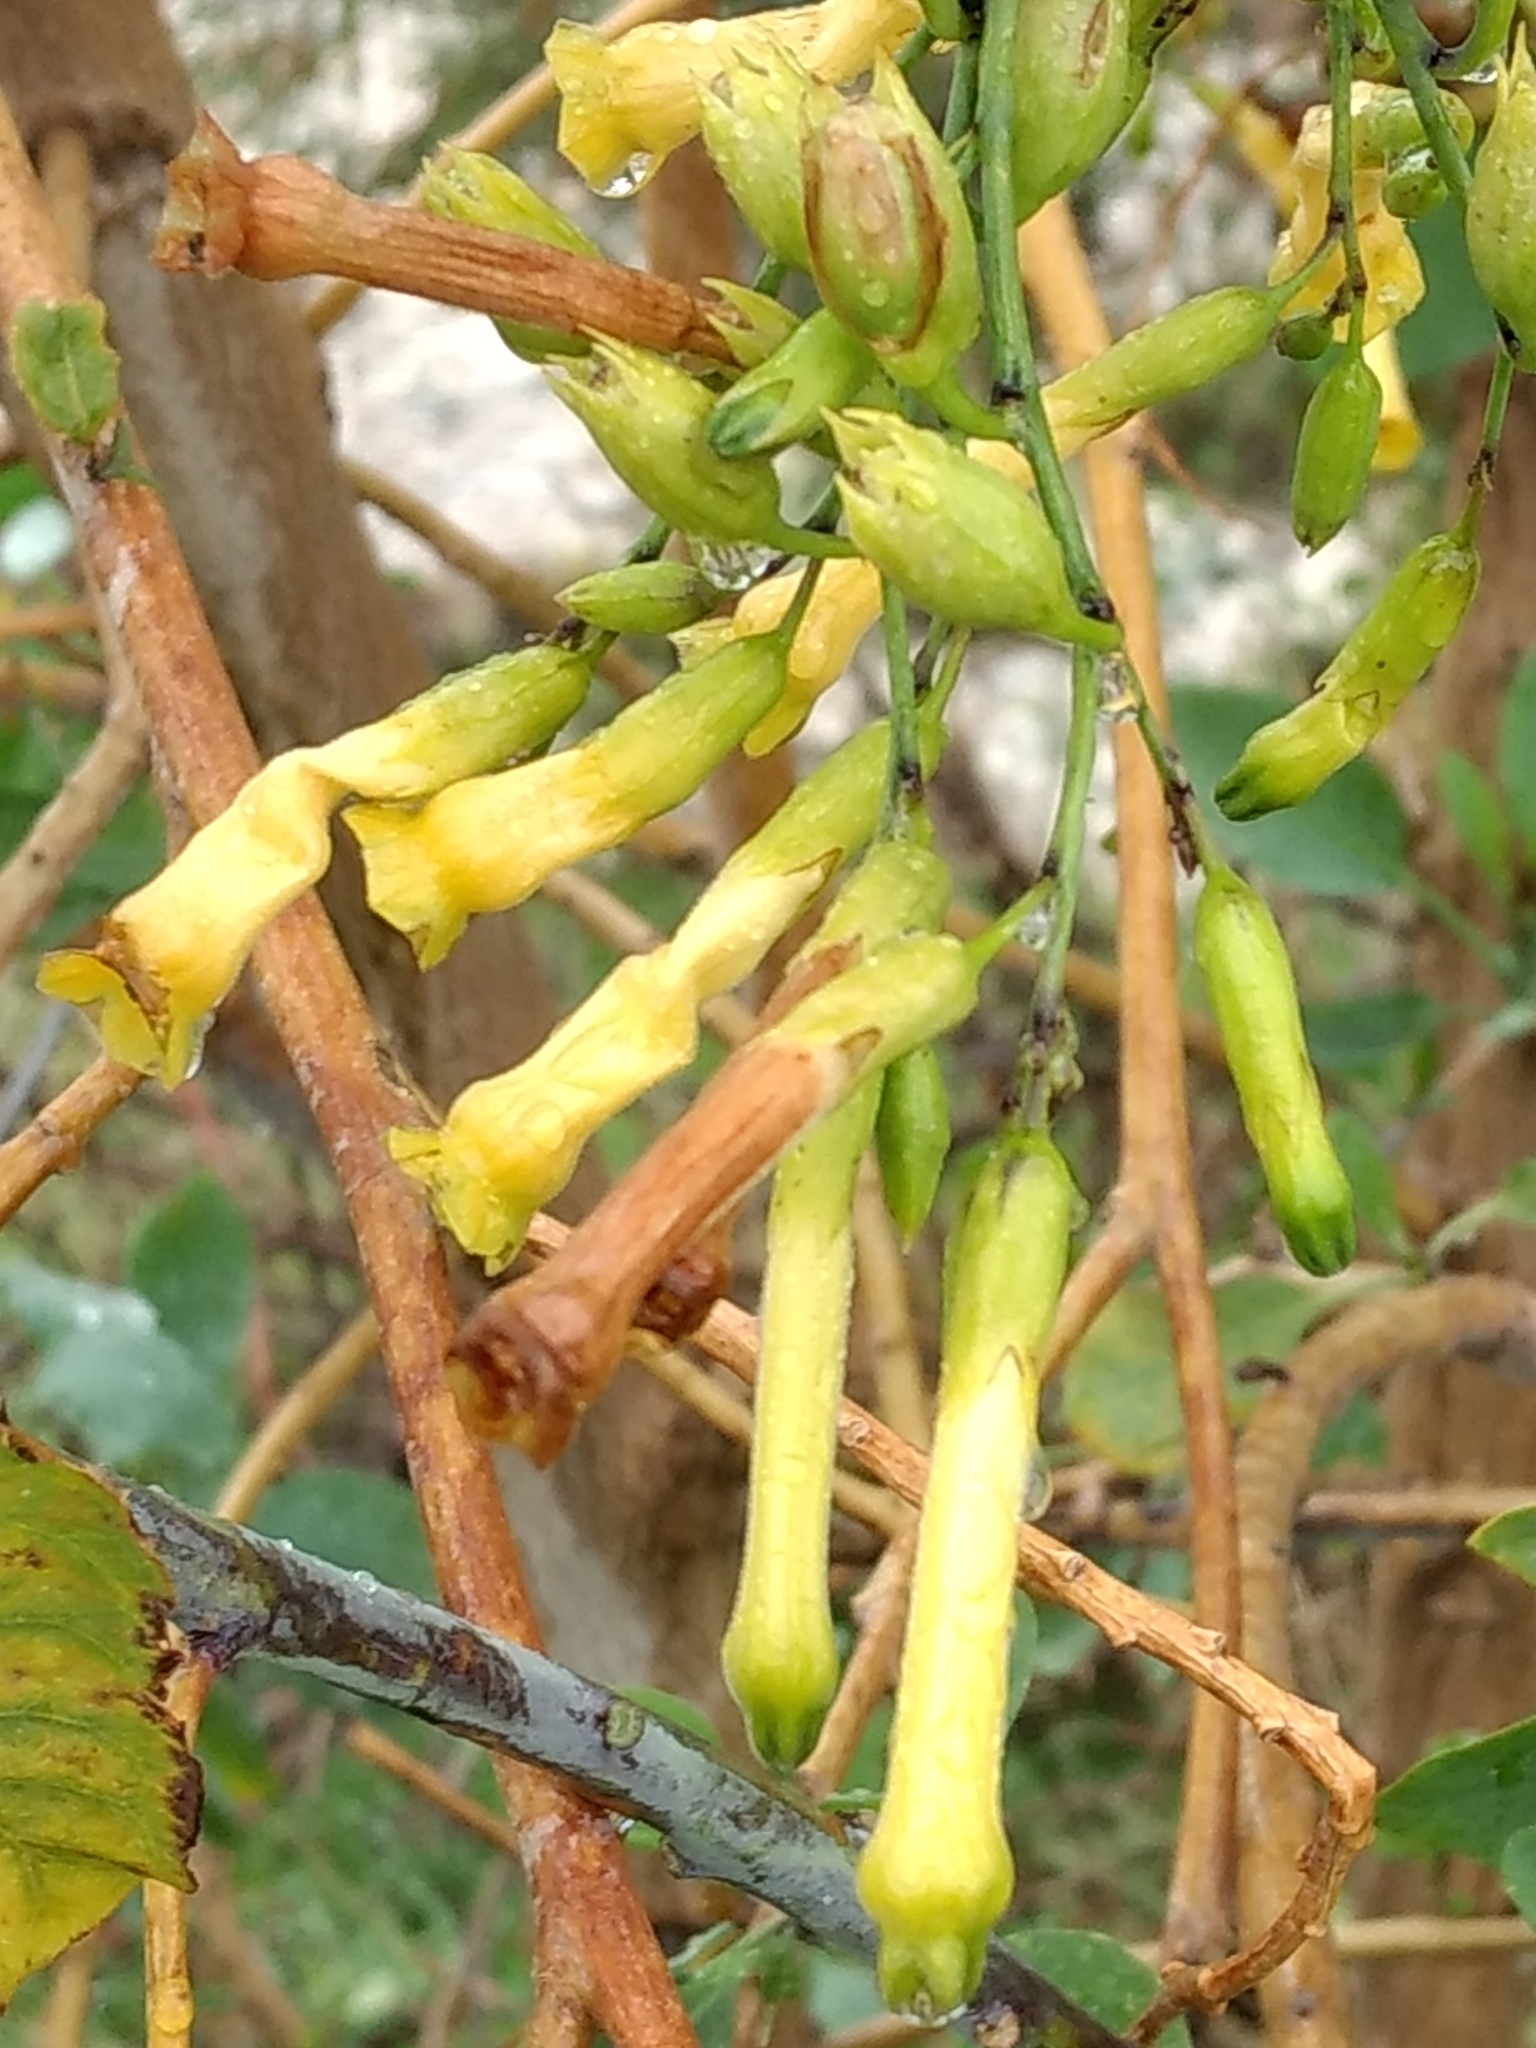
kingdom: Plantae
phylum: Tracheophyta
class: Magnoliopsida
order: Solanales
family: Solanaceae
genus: Nicotiana
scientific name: Nicotiana glauca
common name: Tree tobacco
